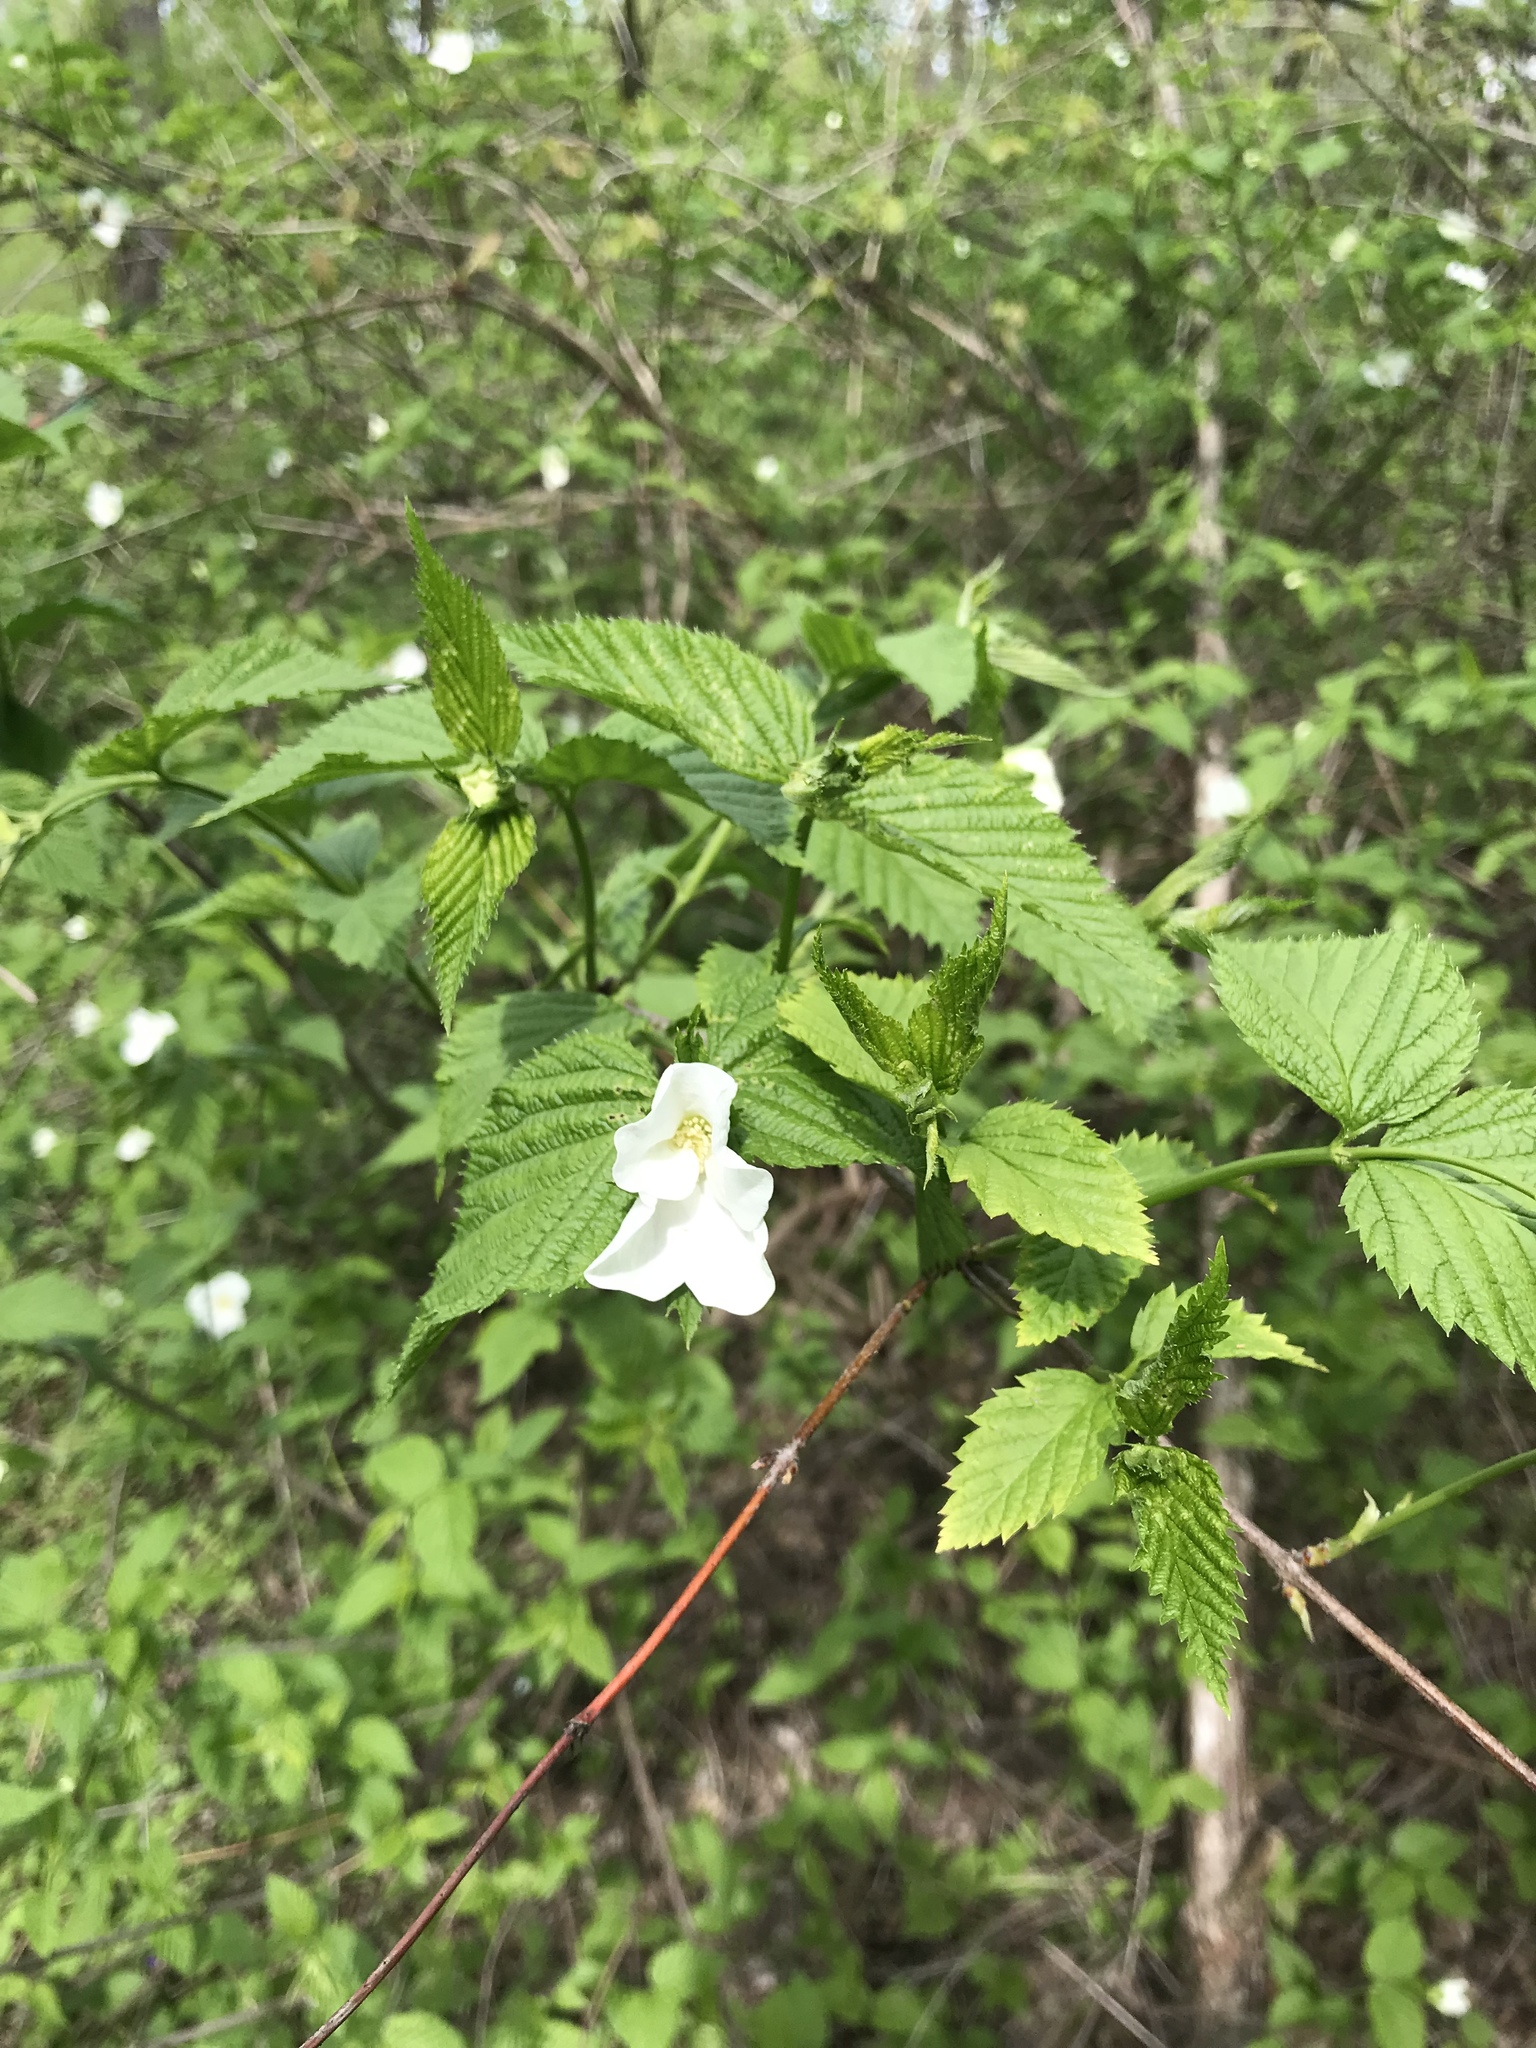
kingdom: Plantae
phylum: Tracheophyta
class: Magnoliopsida
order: Rosales
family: Rosaceae
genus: Rhodotypos
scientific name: Rhodotypos scandens
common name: Jetbead
